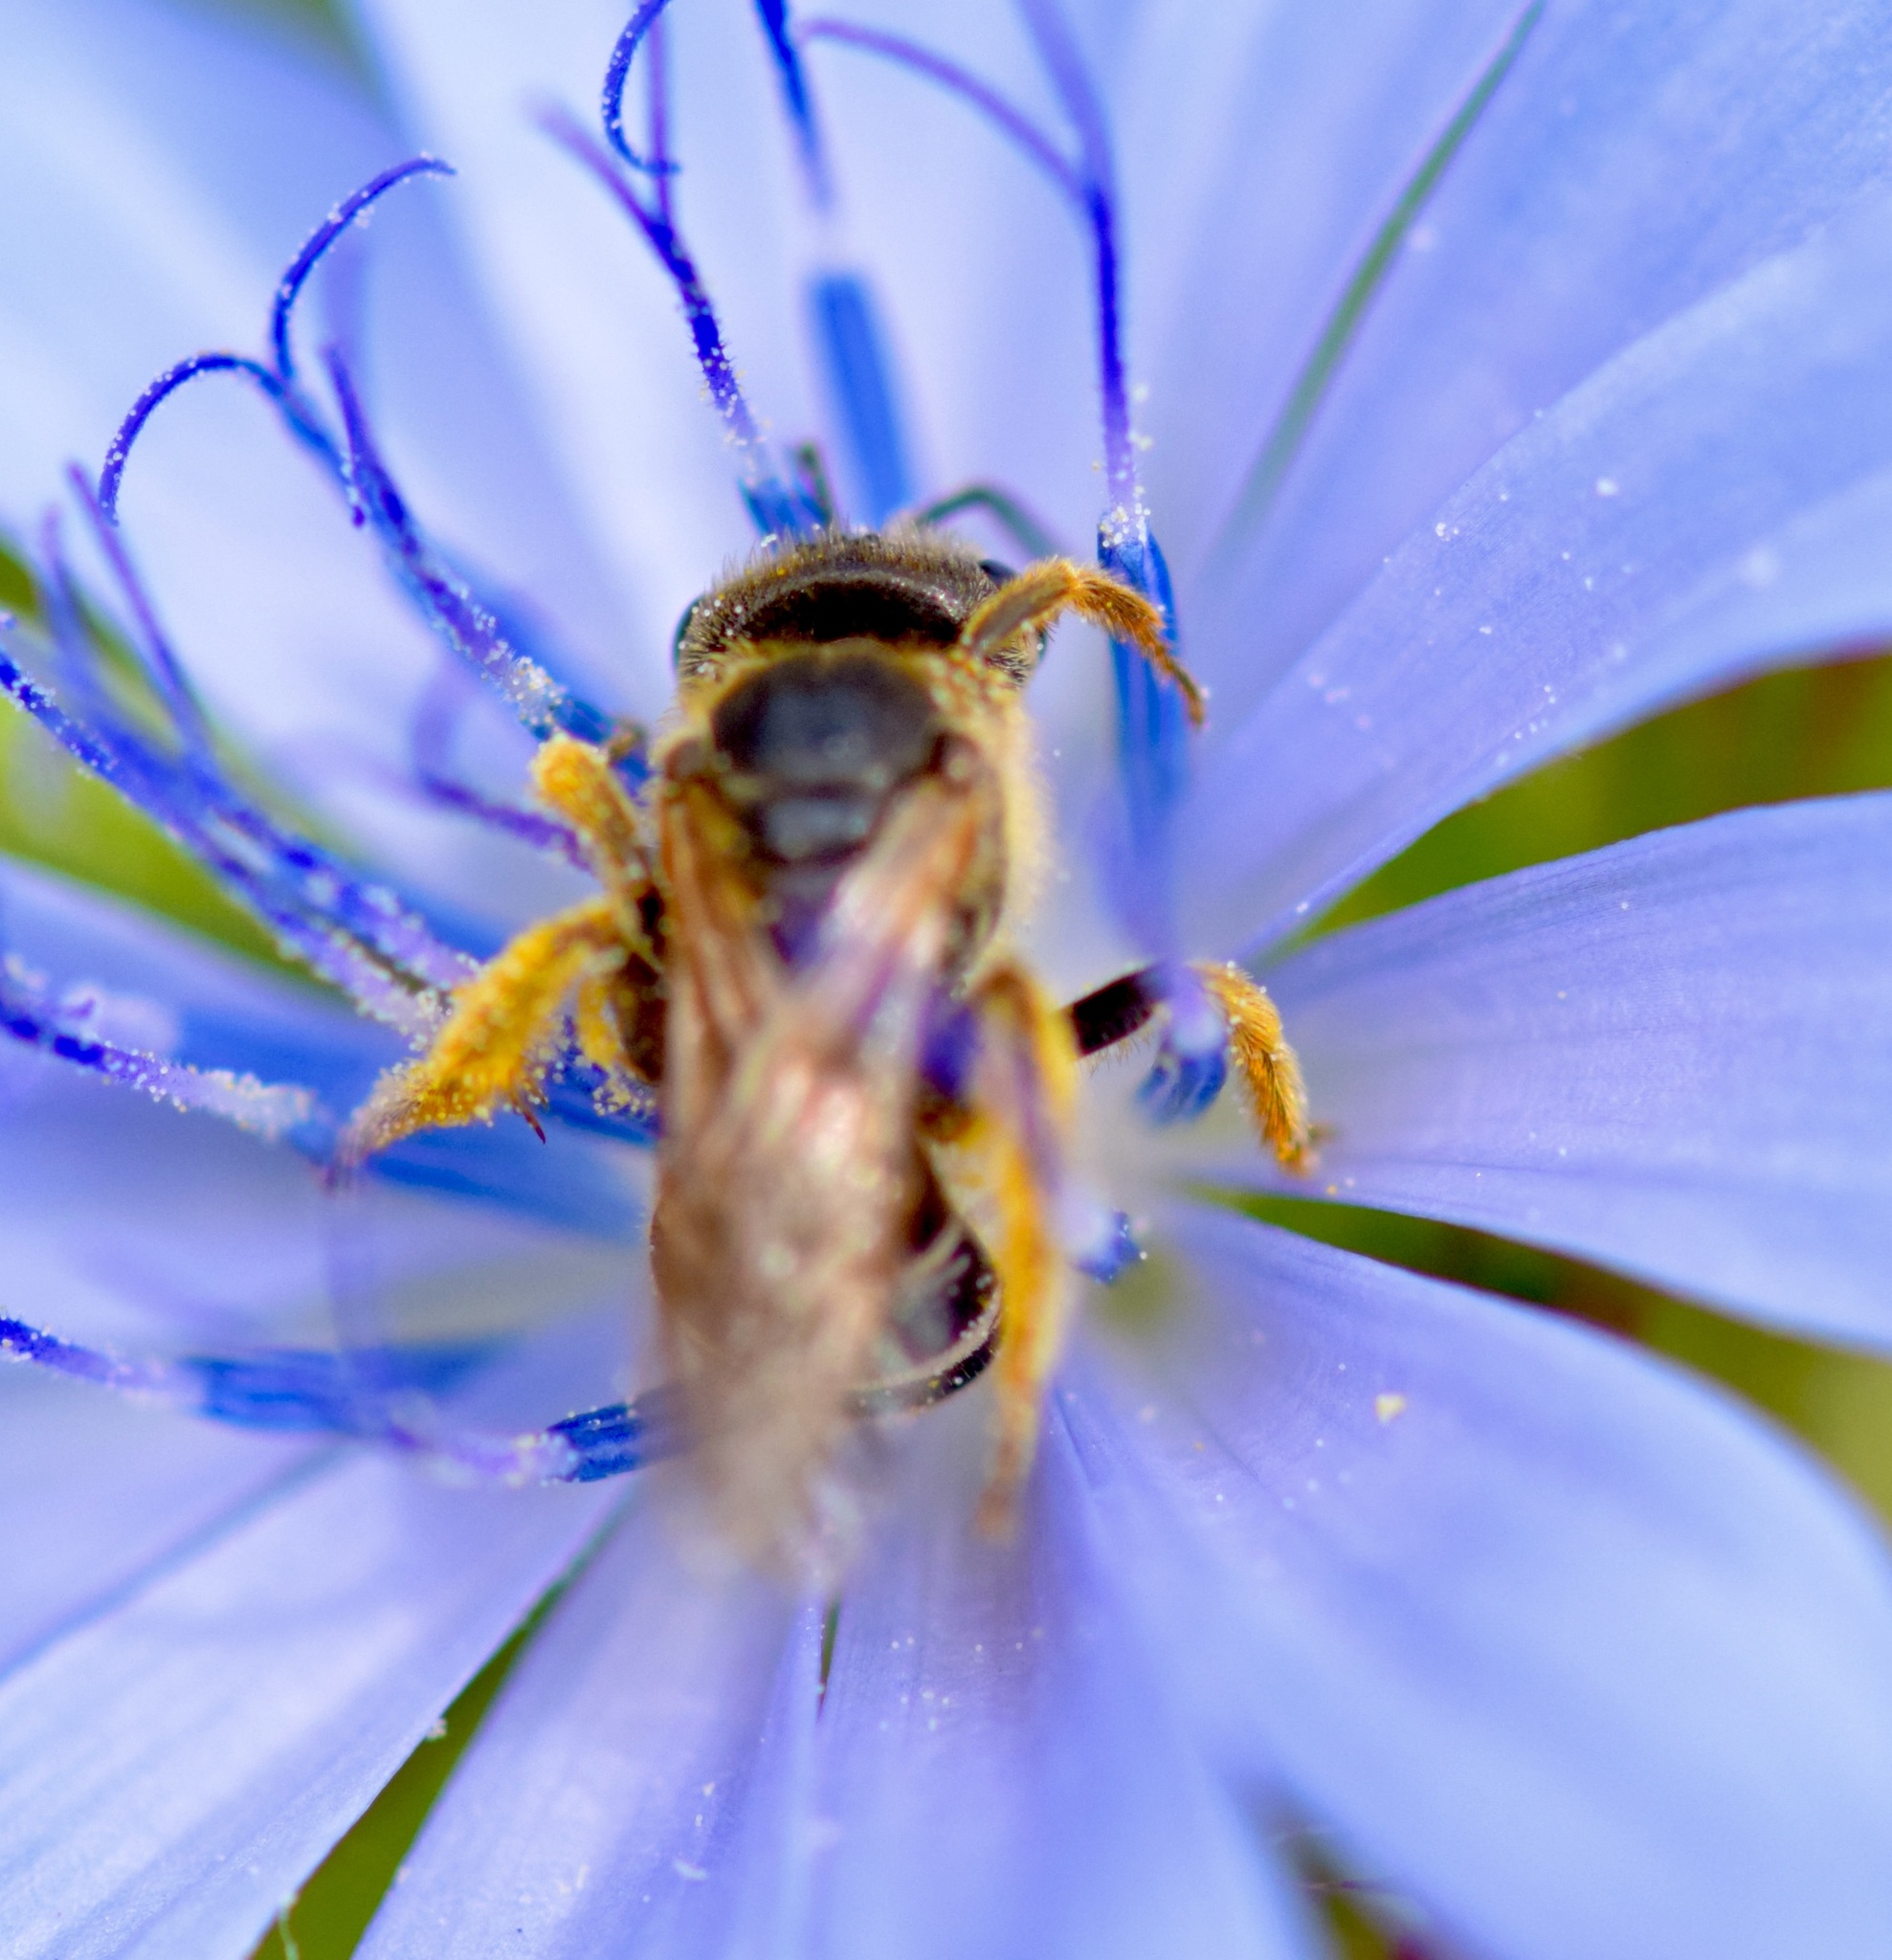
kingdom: Animalia
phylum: Arthropoda
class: Insecta
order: Hymenoptera
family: Halictidae
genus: Halictus
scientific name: Halictus ligatus
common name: Ligated furrow bee
